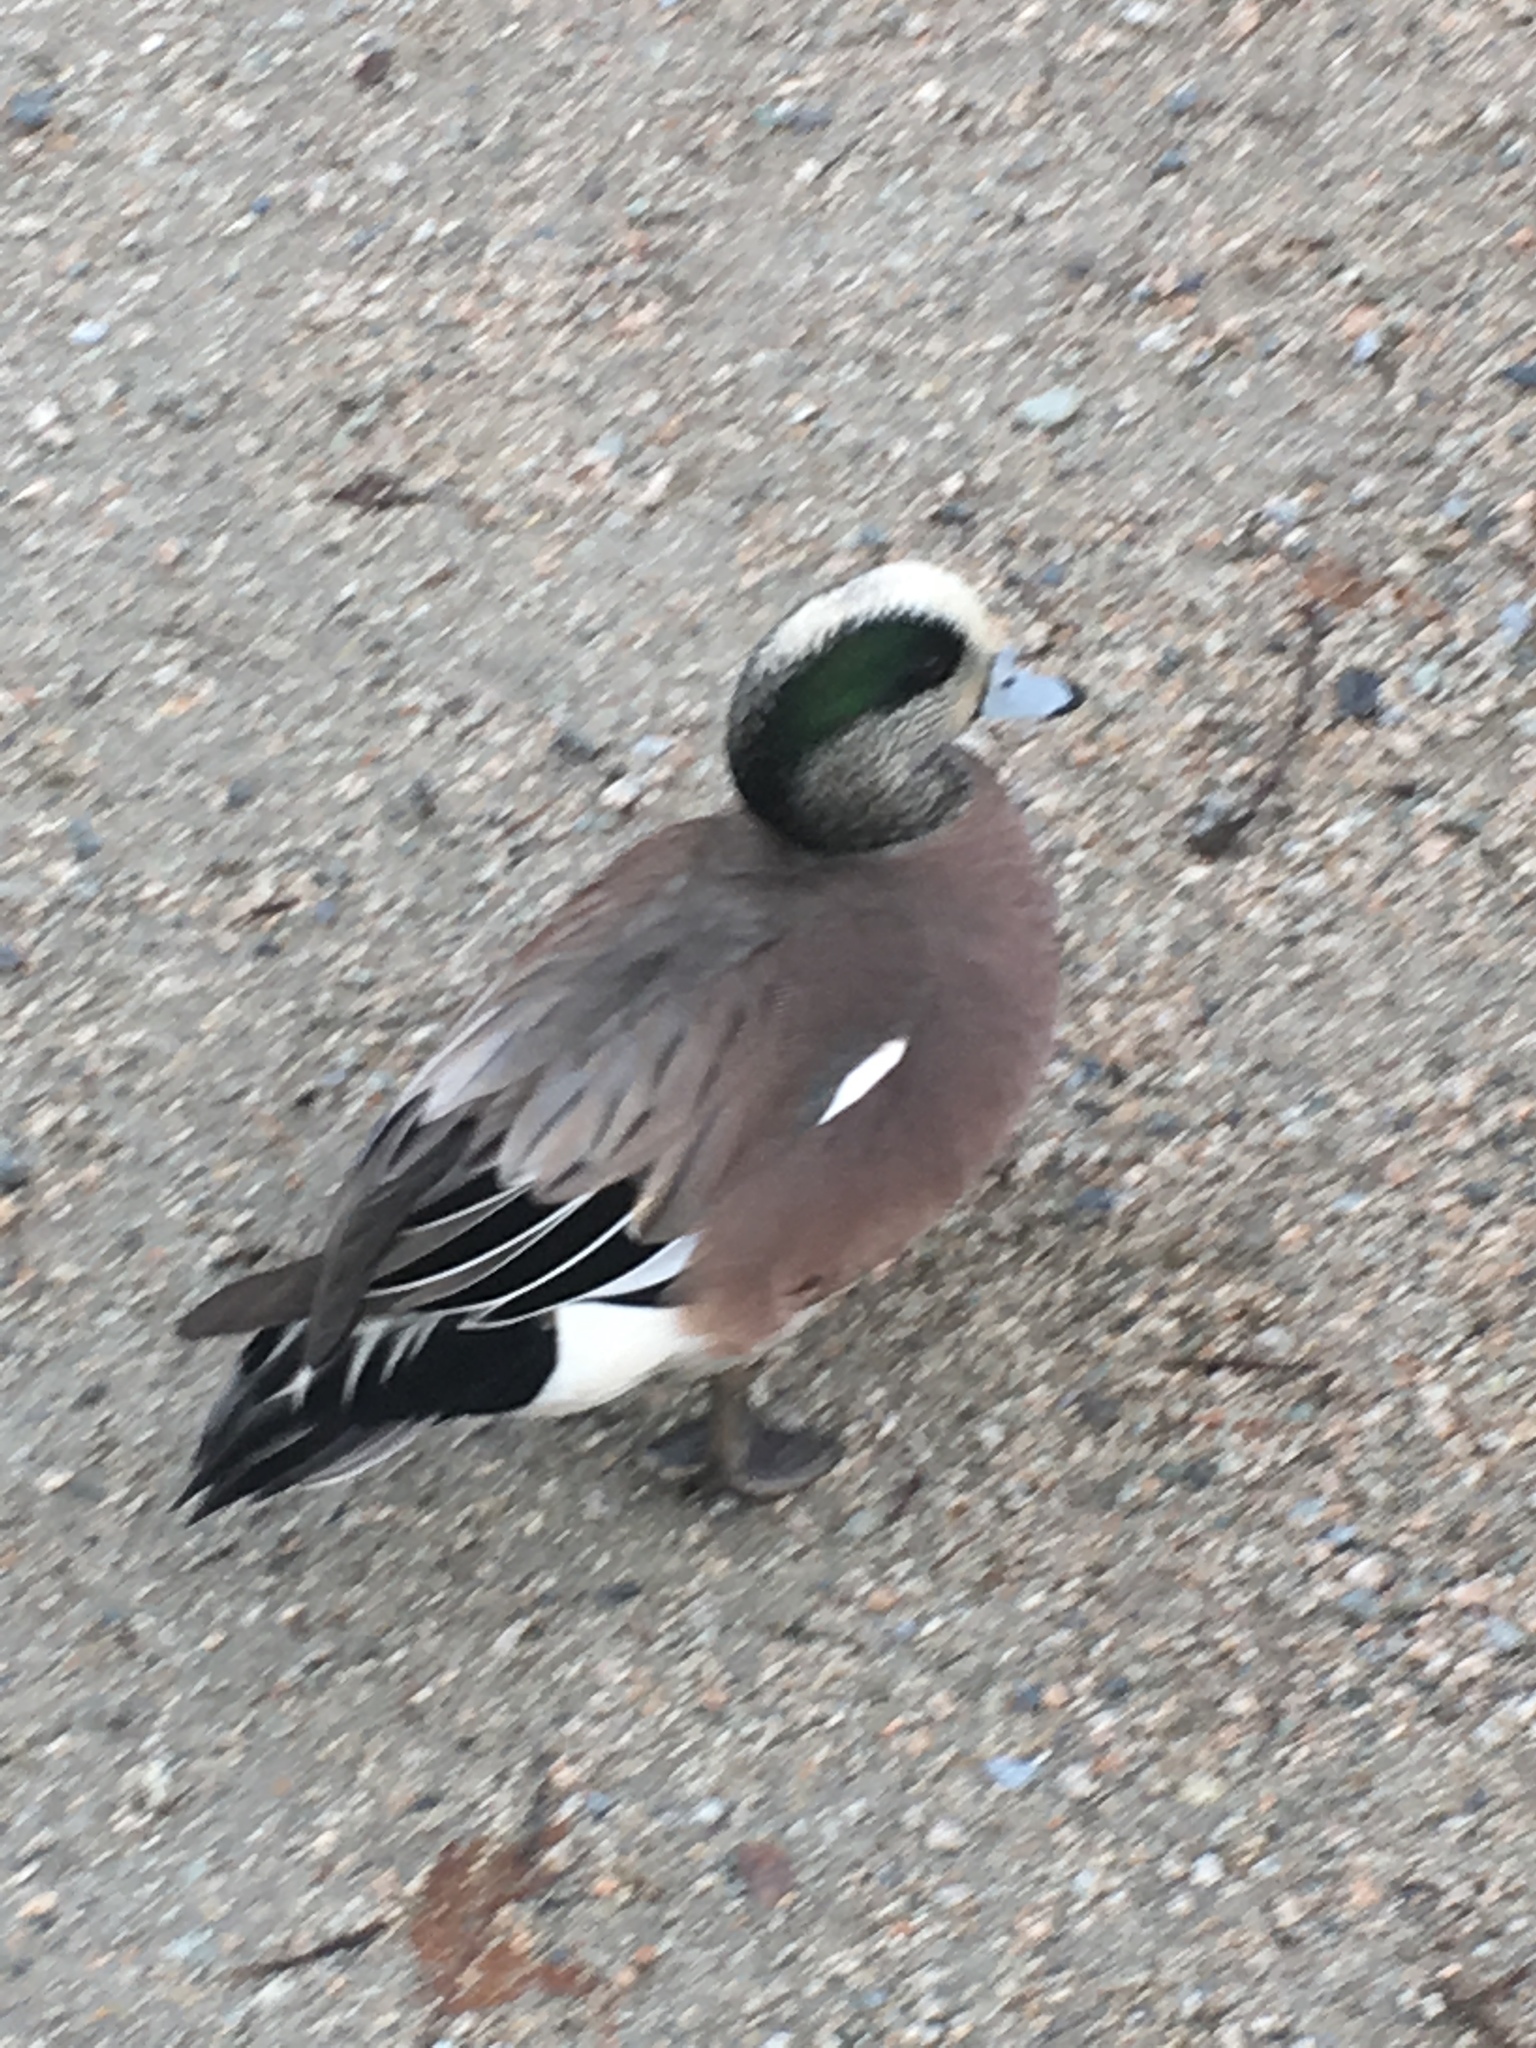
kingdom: Animalia
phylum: Chordata
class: Aves
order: Anseriformes
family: Anatidae
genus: Mareca
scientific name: Mareca americana
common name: American wigeon
